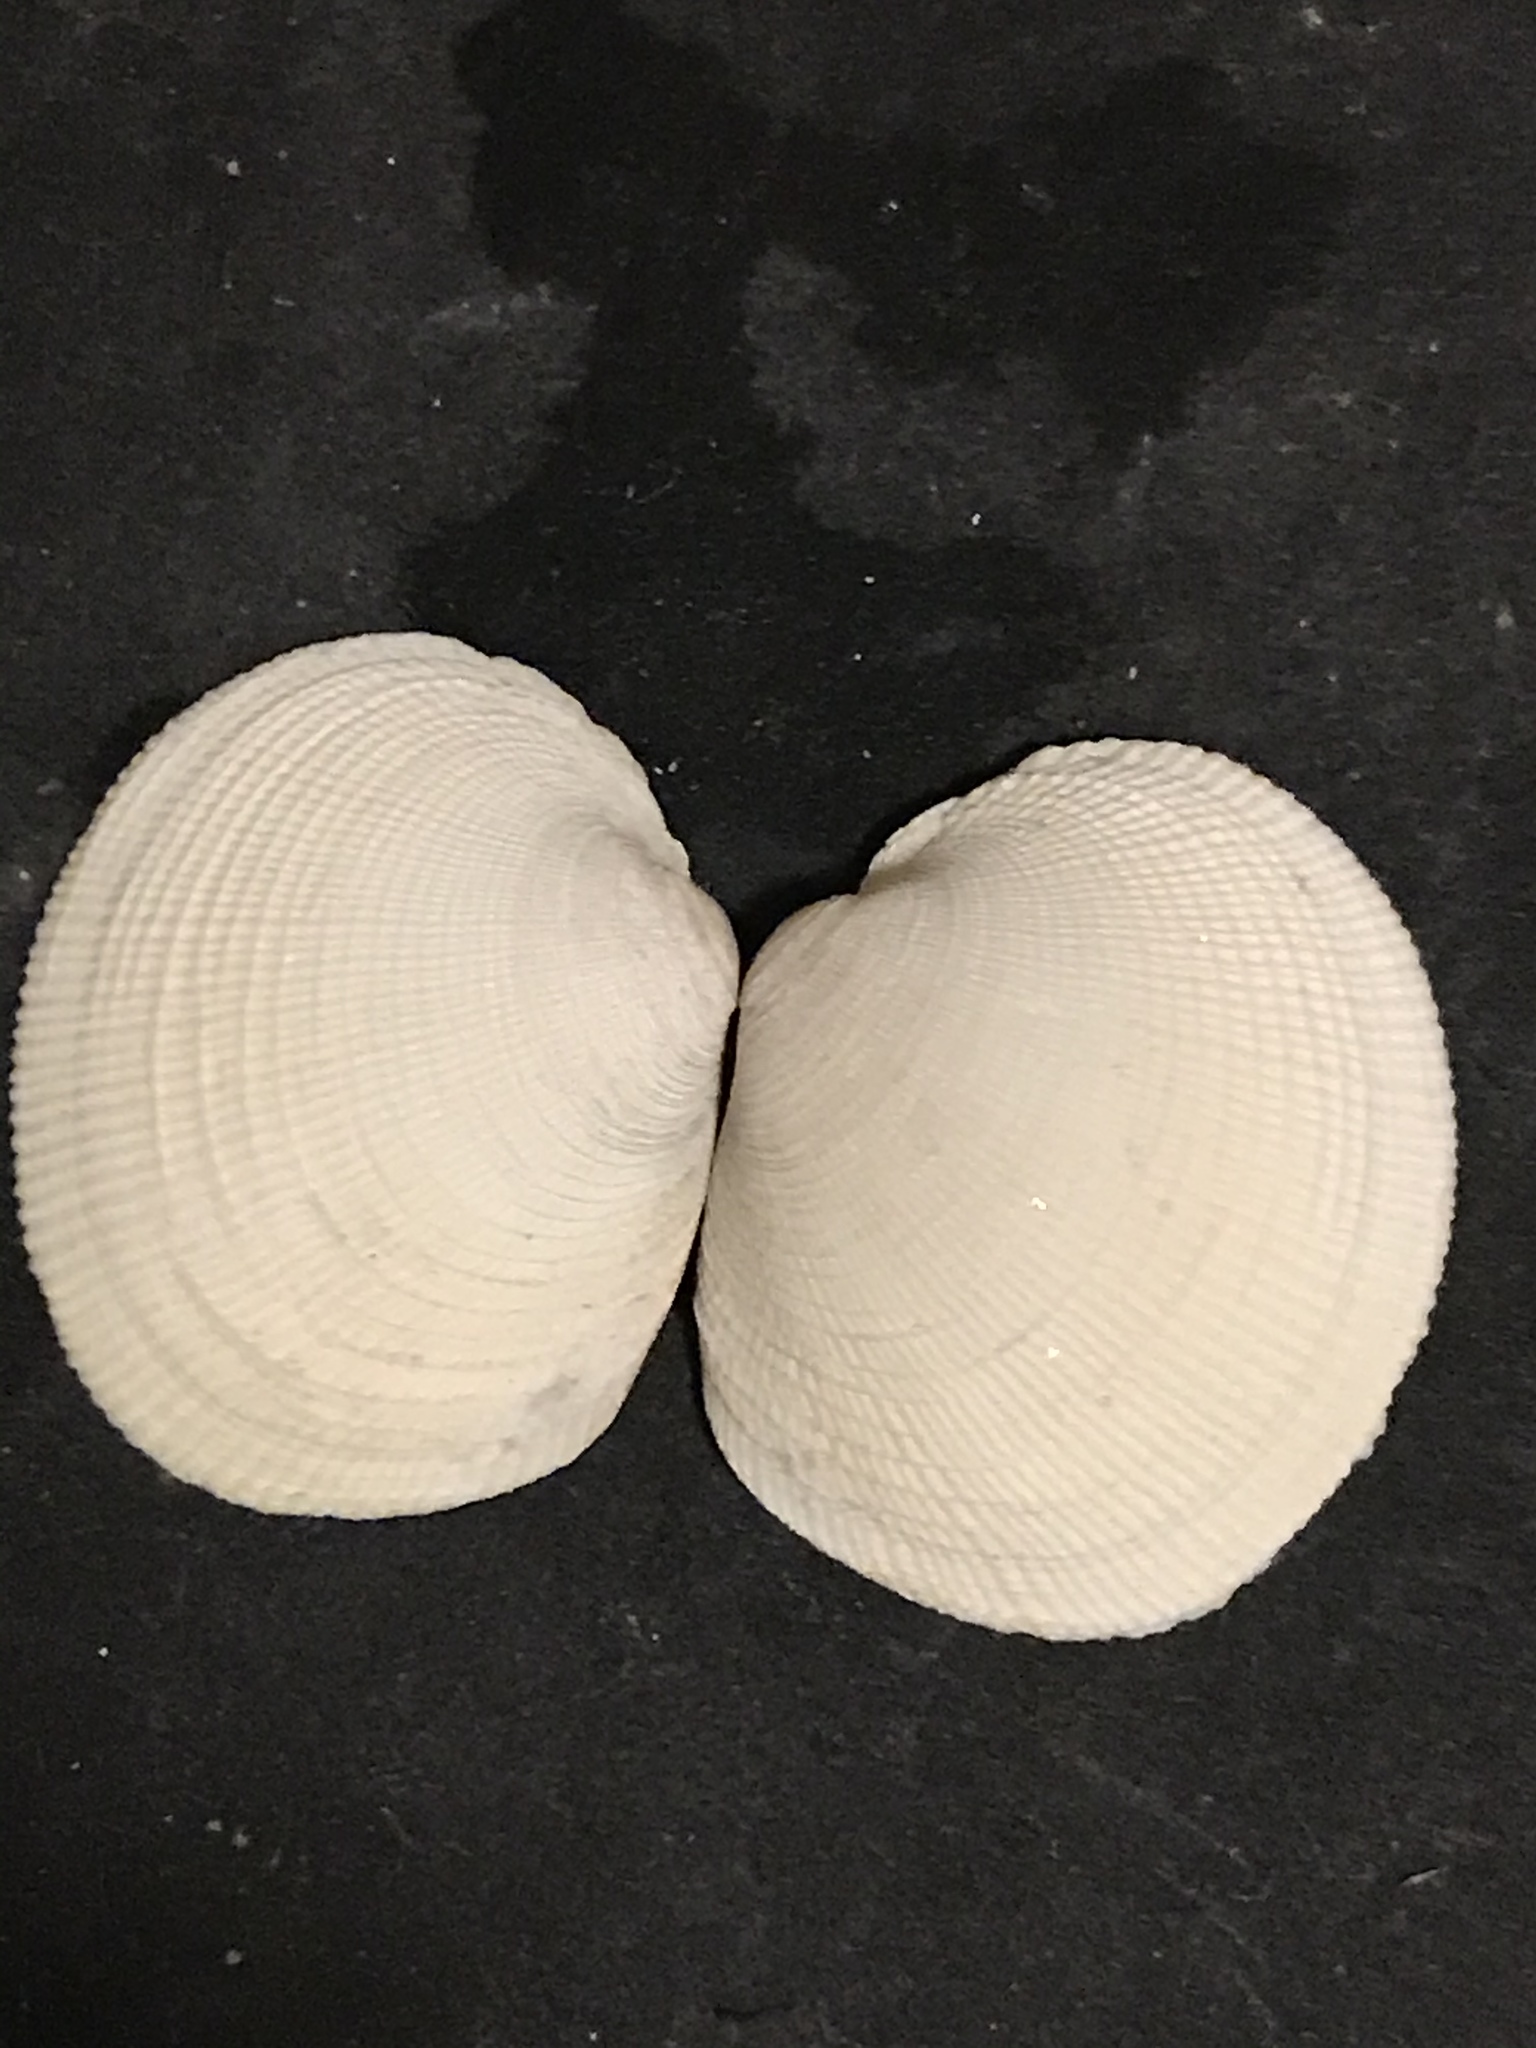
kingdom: Animalia
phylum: Mollusca
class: Bivalvia
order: Venerida
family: Veneridae
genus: Leukoma
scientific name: Leukoma staminea
